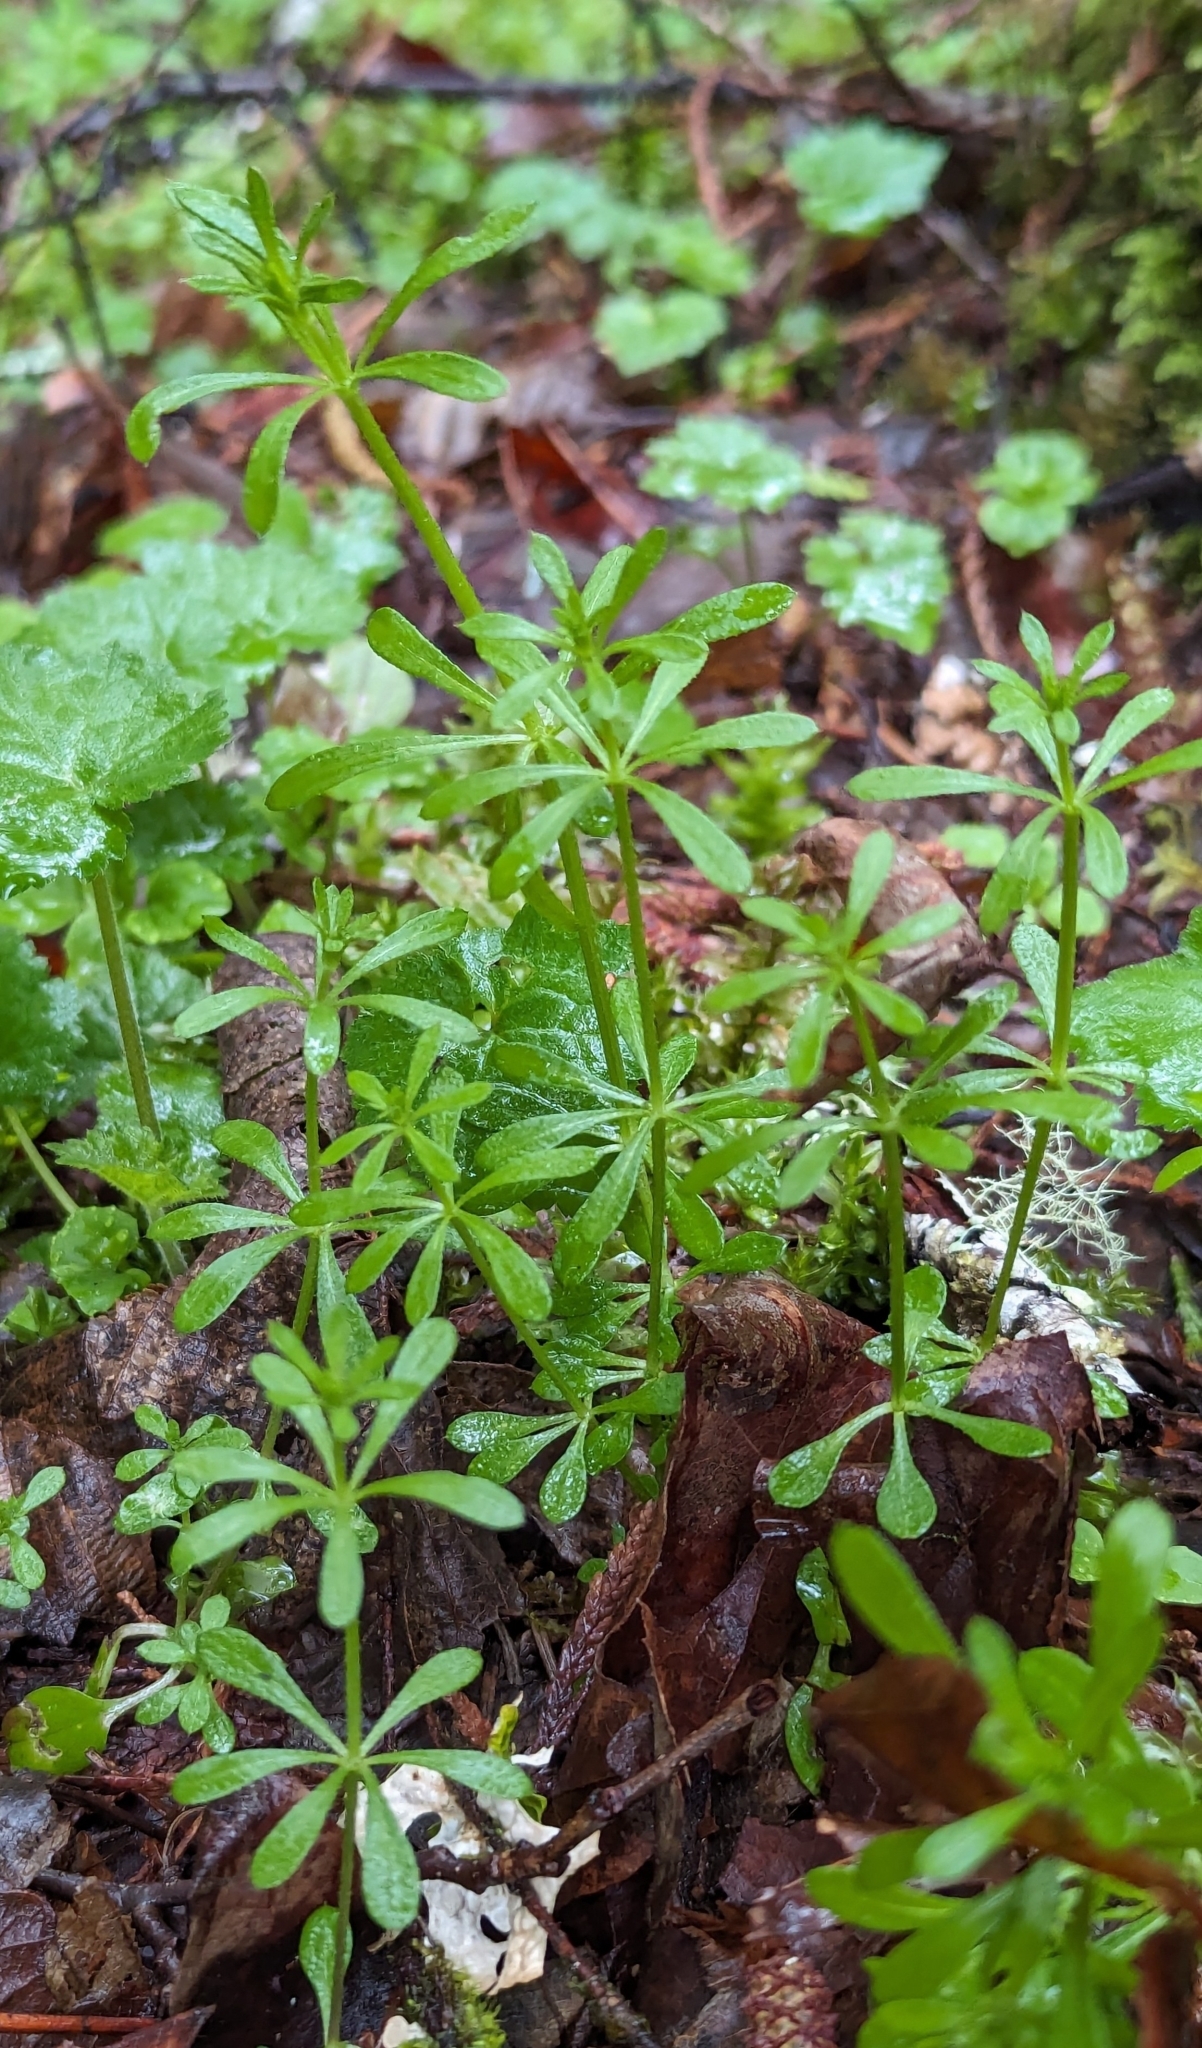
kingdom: Plantae
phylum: Tracheophyta
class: Magnoliopsida
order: Gentianales
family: Rubiaceae
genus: Galium
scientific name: Galium aparine
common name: Cleavers
